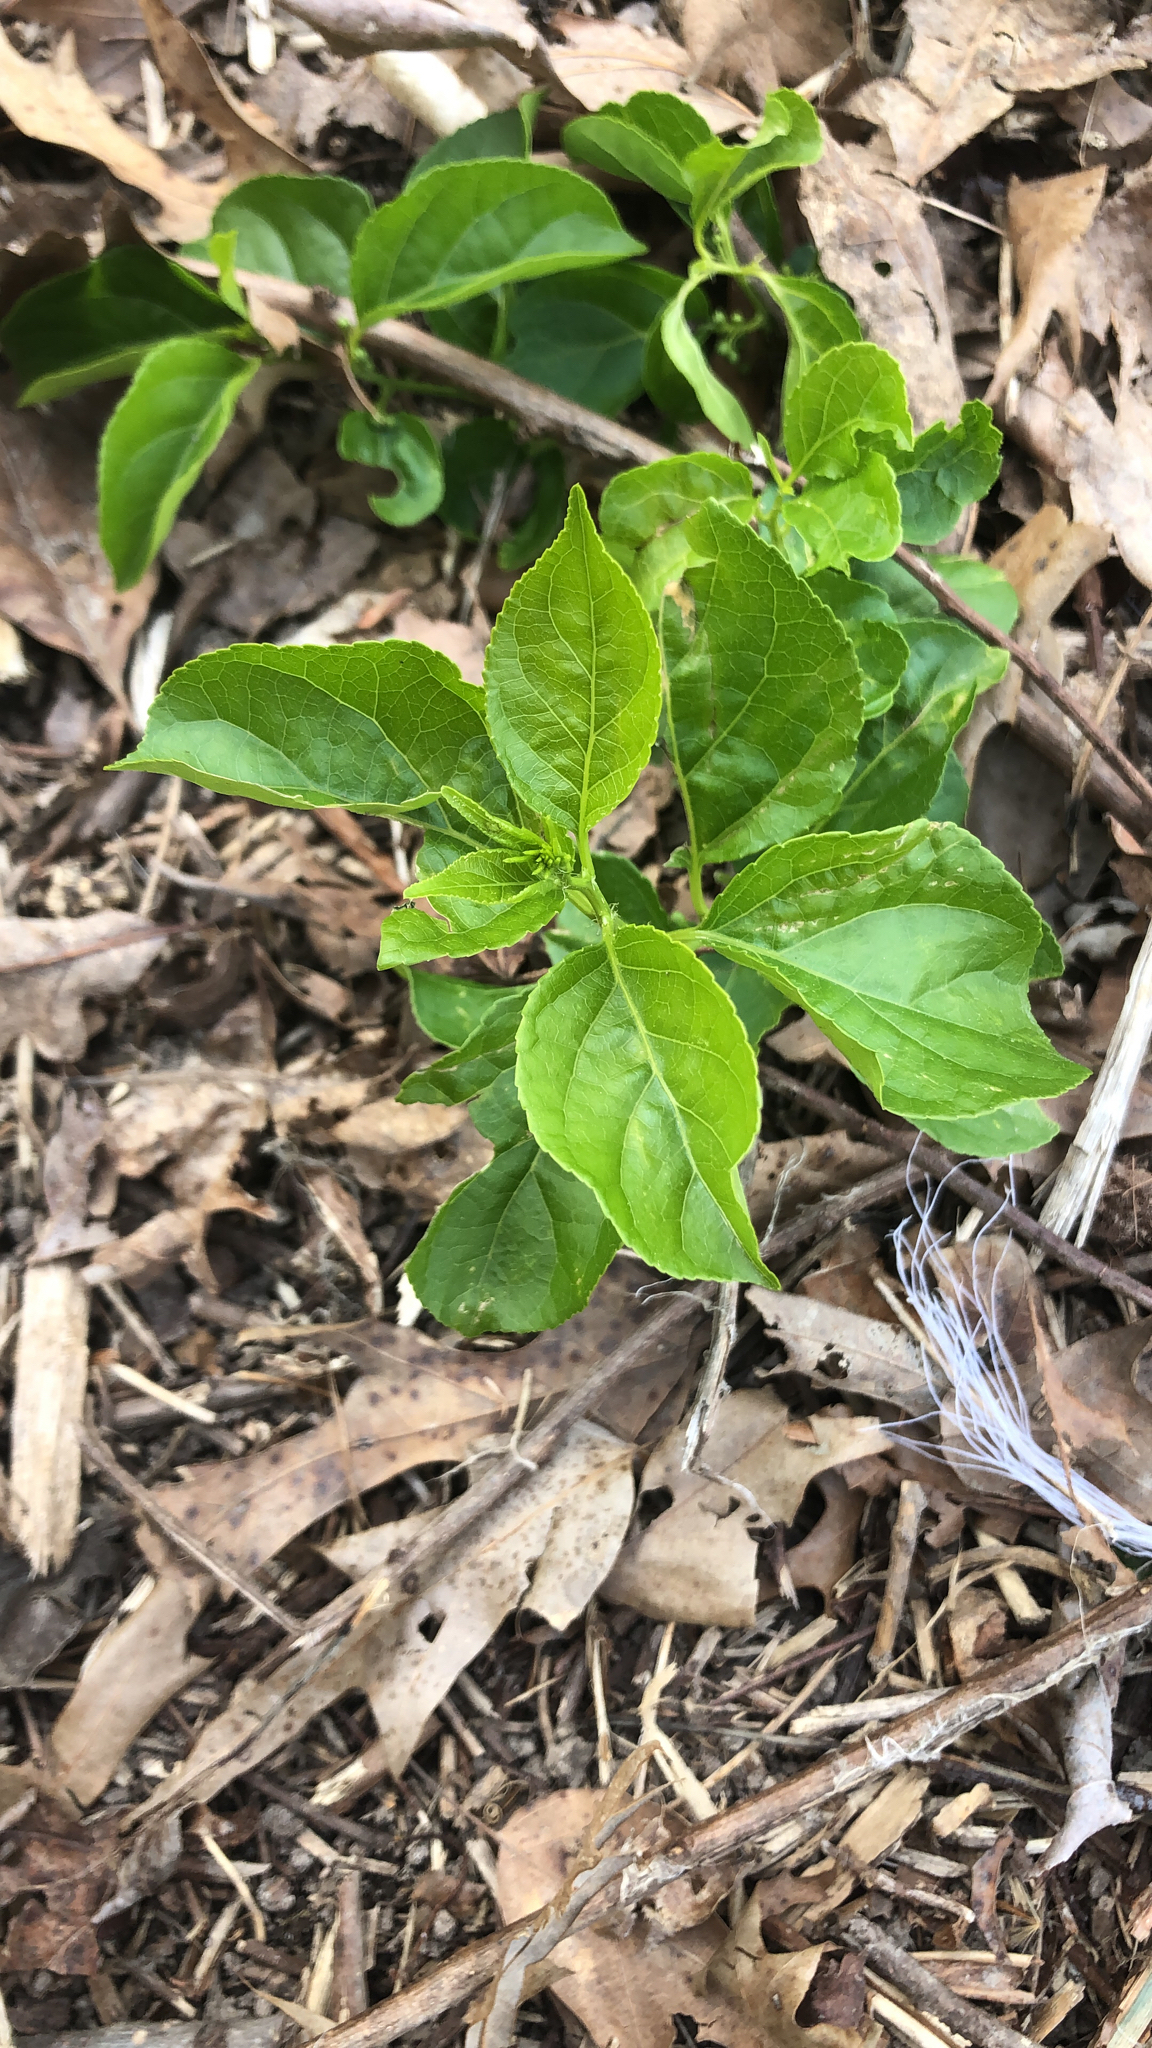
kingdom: Plantae
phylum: Tracheophyta
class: Magnoliopsida
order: Celastrales
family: Celastraceae
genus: Celastrus
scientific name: Celastrus orbiculatus
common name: Oriental bittersweet
